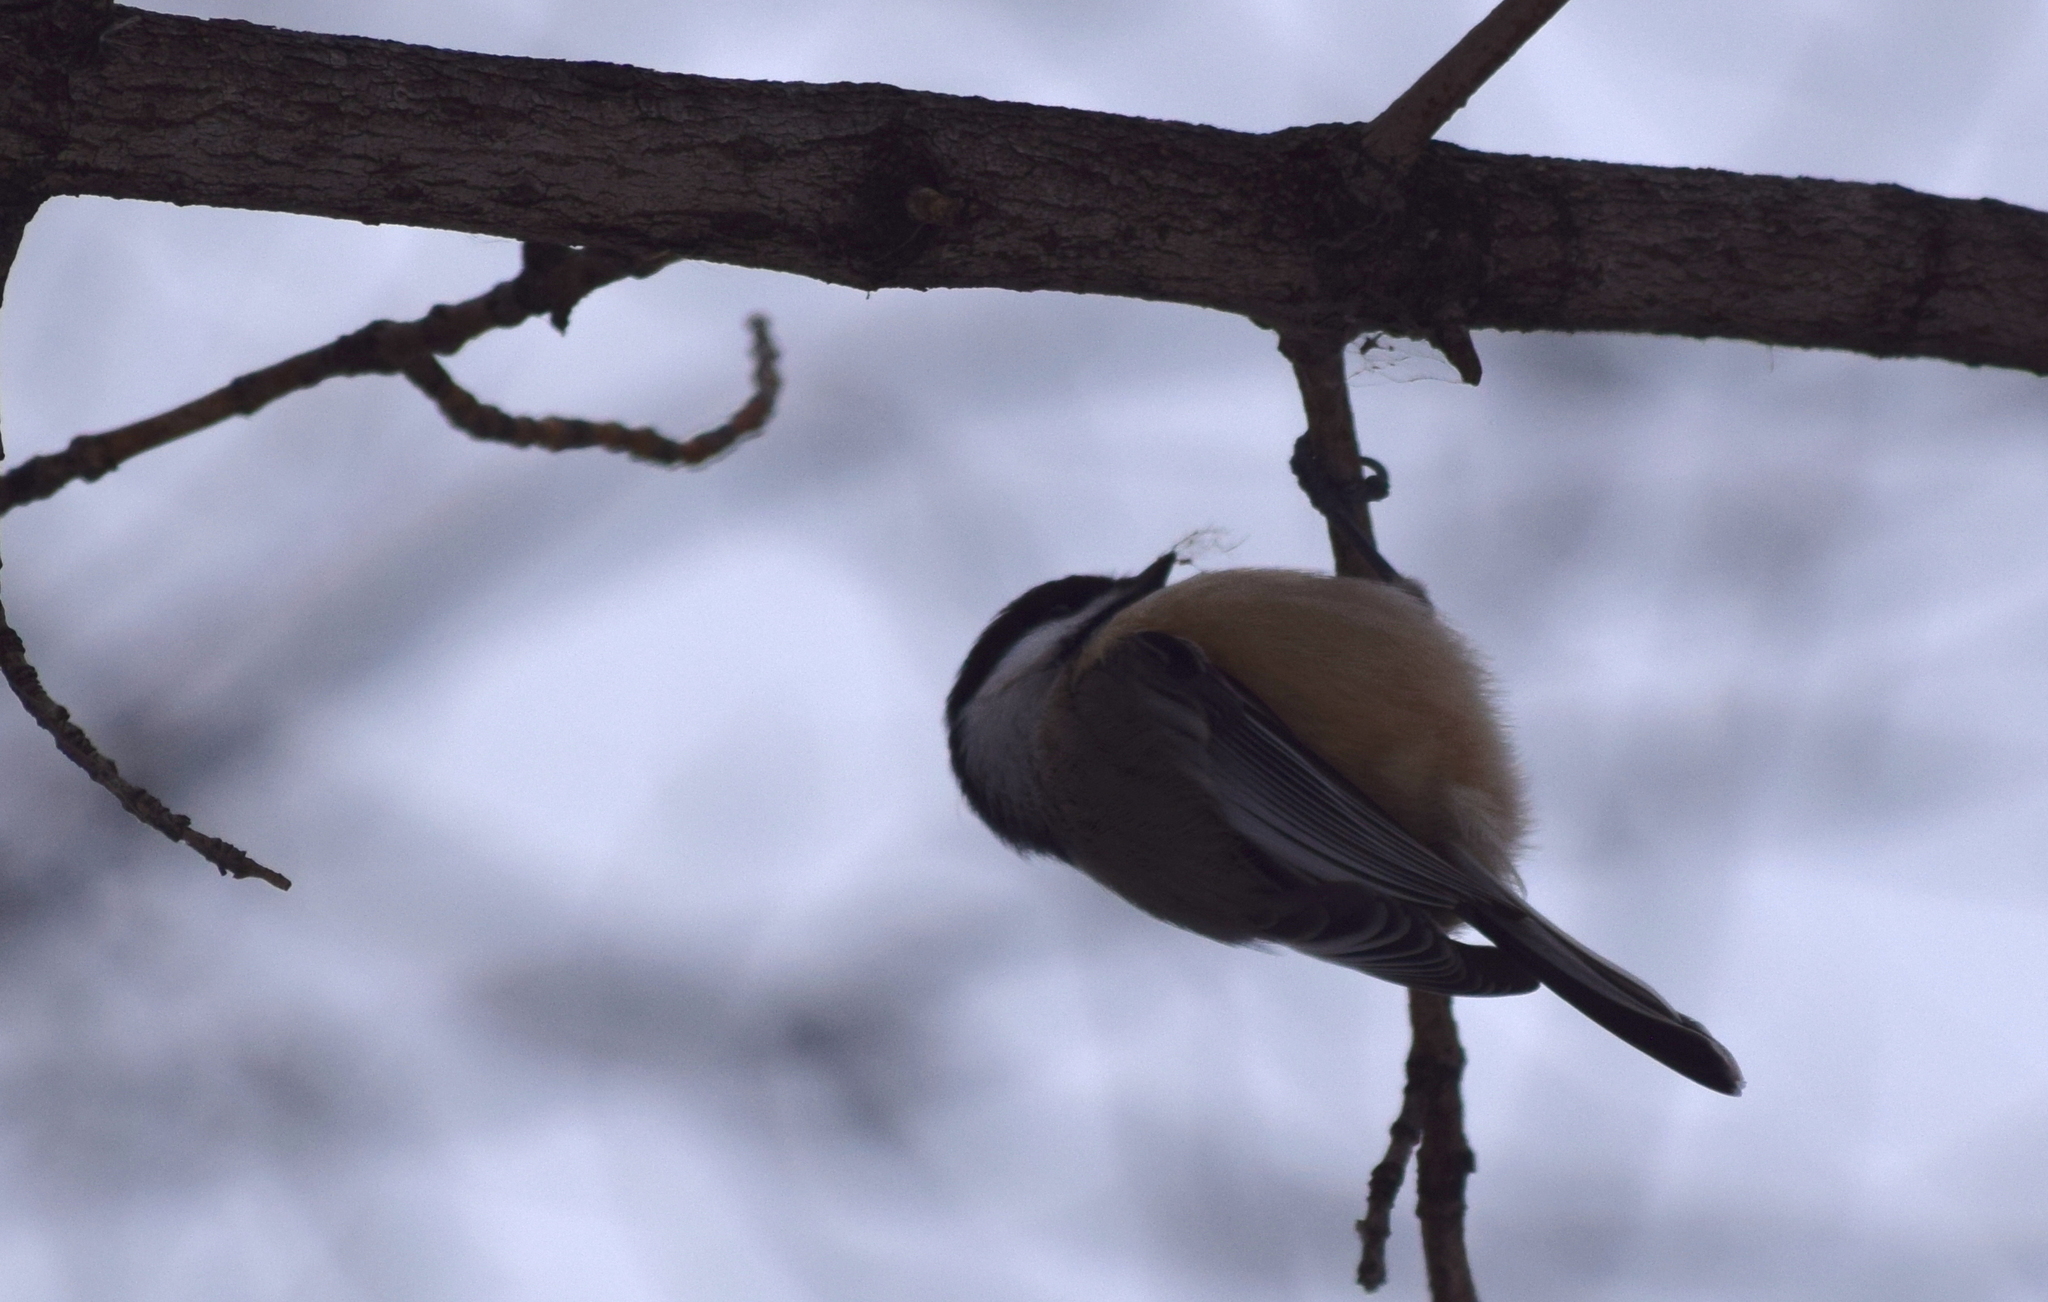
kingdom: Animalia
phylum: Chordata
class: Aves
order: Passeriformes
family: Paridae
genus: Poecile
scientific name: Poecile atricapillus
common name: Black-capped chickadee
